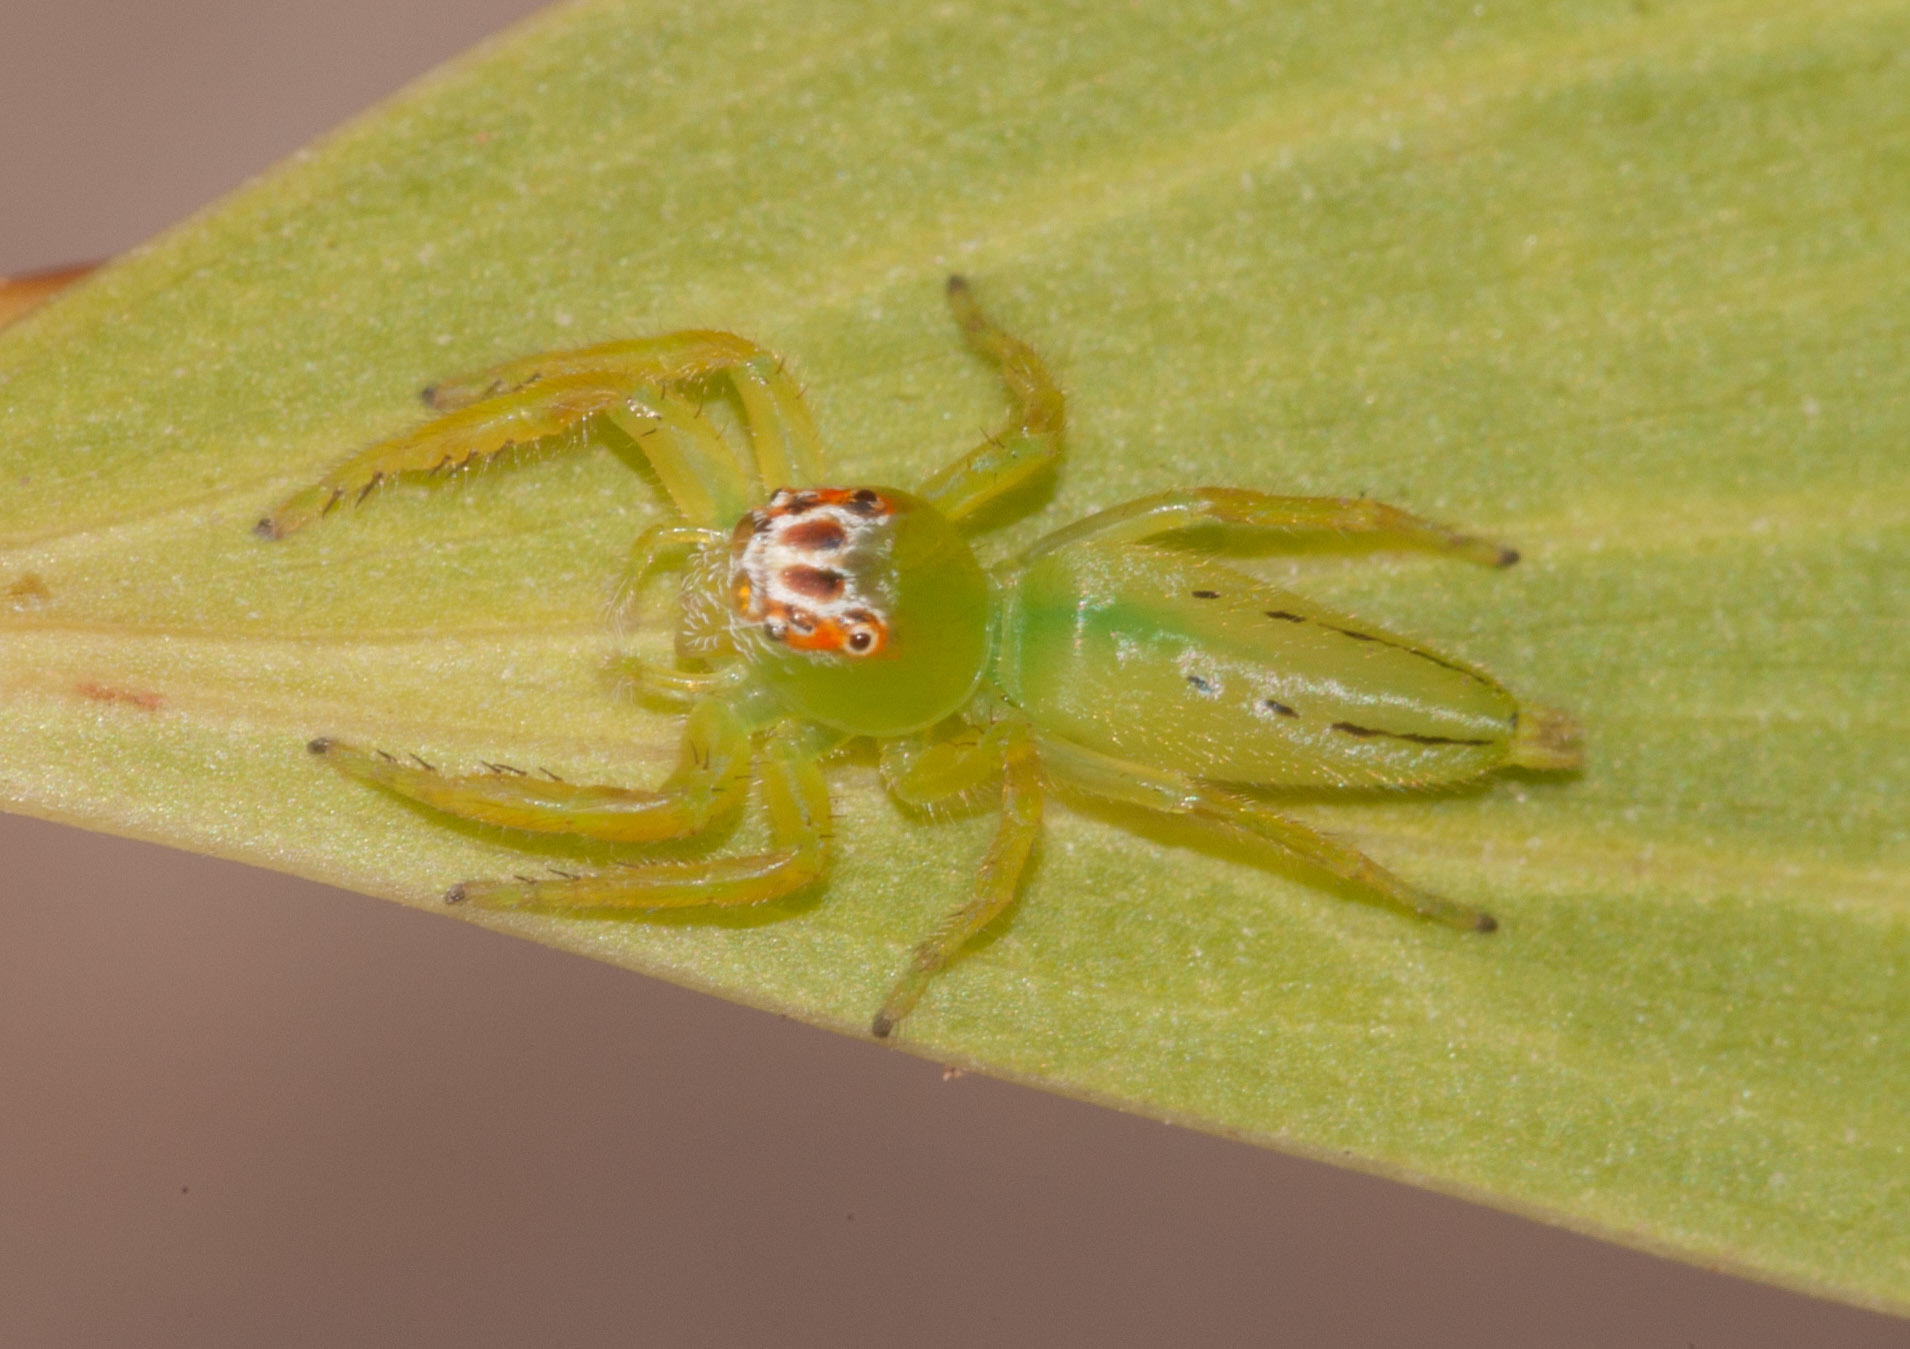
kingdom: Animalia
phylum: Arthropoda
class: Arachnida
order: Araneae
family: Salticidae
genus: Mopsus
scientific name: Mopsus mormon
